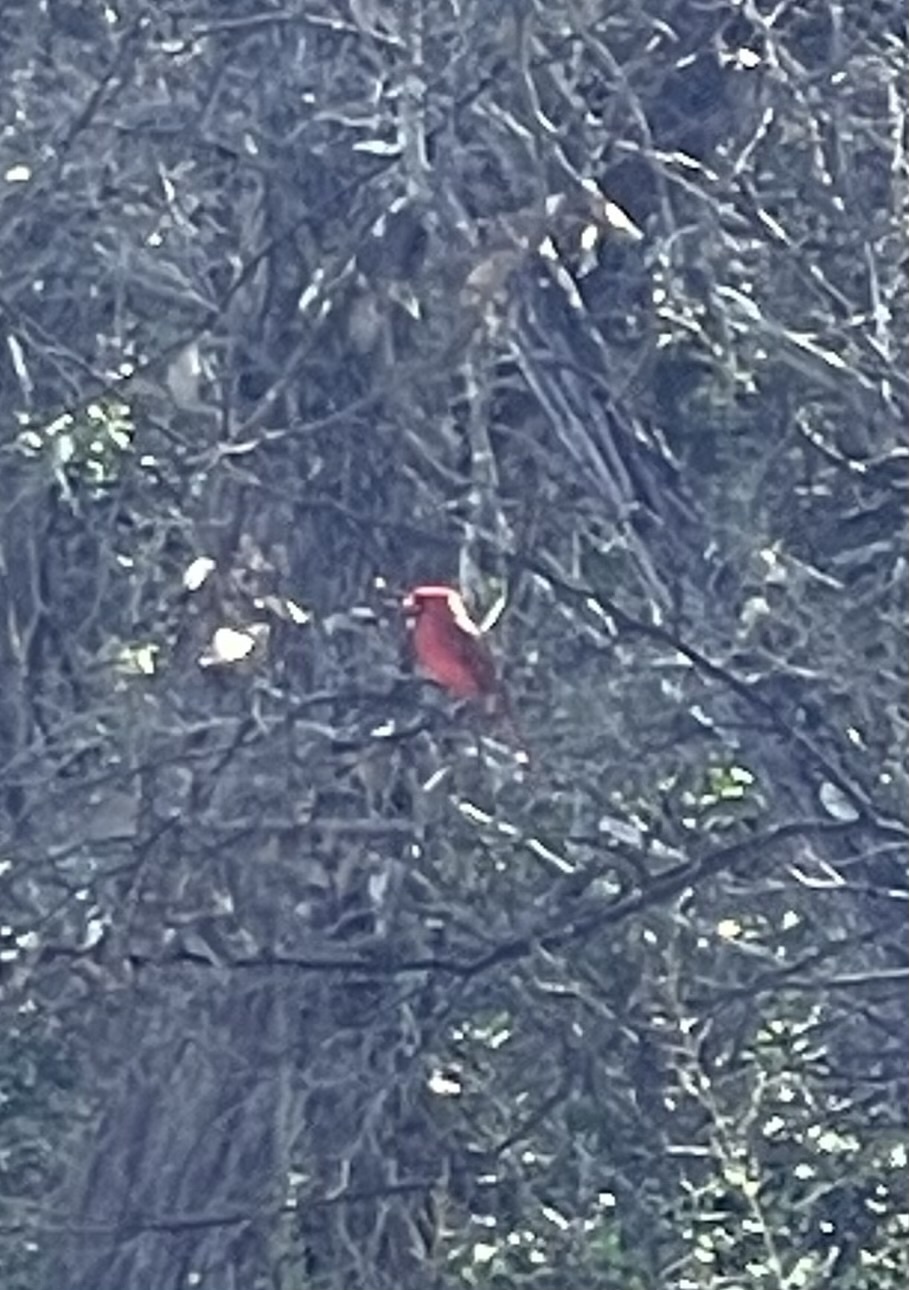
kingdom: Animalia
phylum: Chordata
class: Aves
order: Passeriformes
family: Cardinalidae
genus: Cardinalis
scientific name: Cardinalis cardinalis
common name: Northern cardinal
